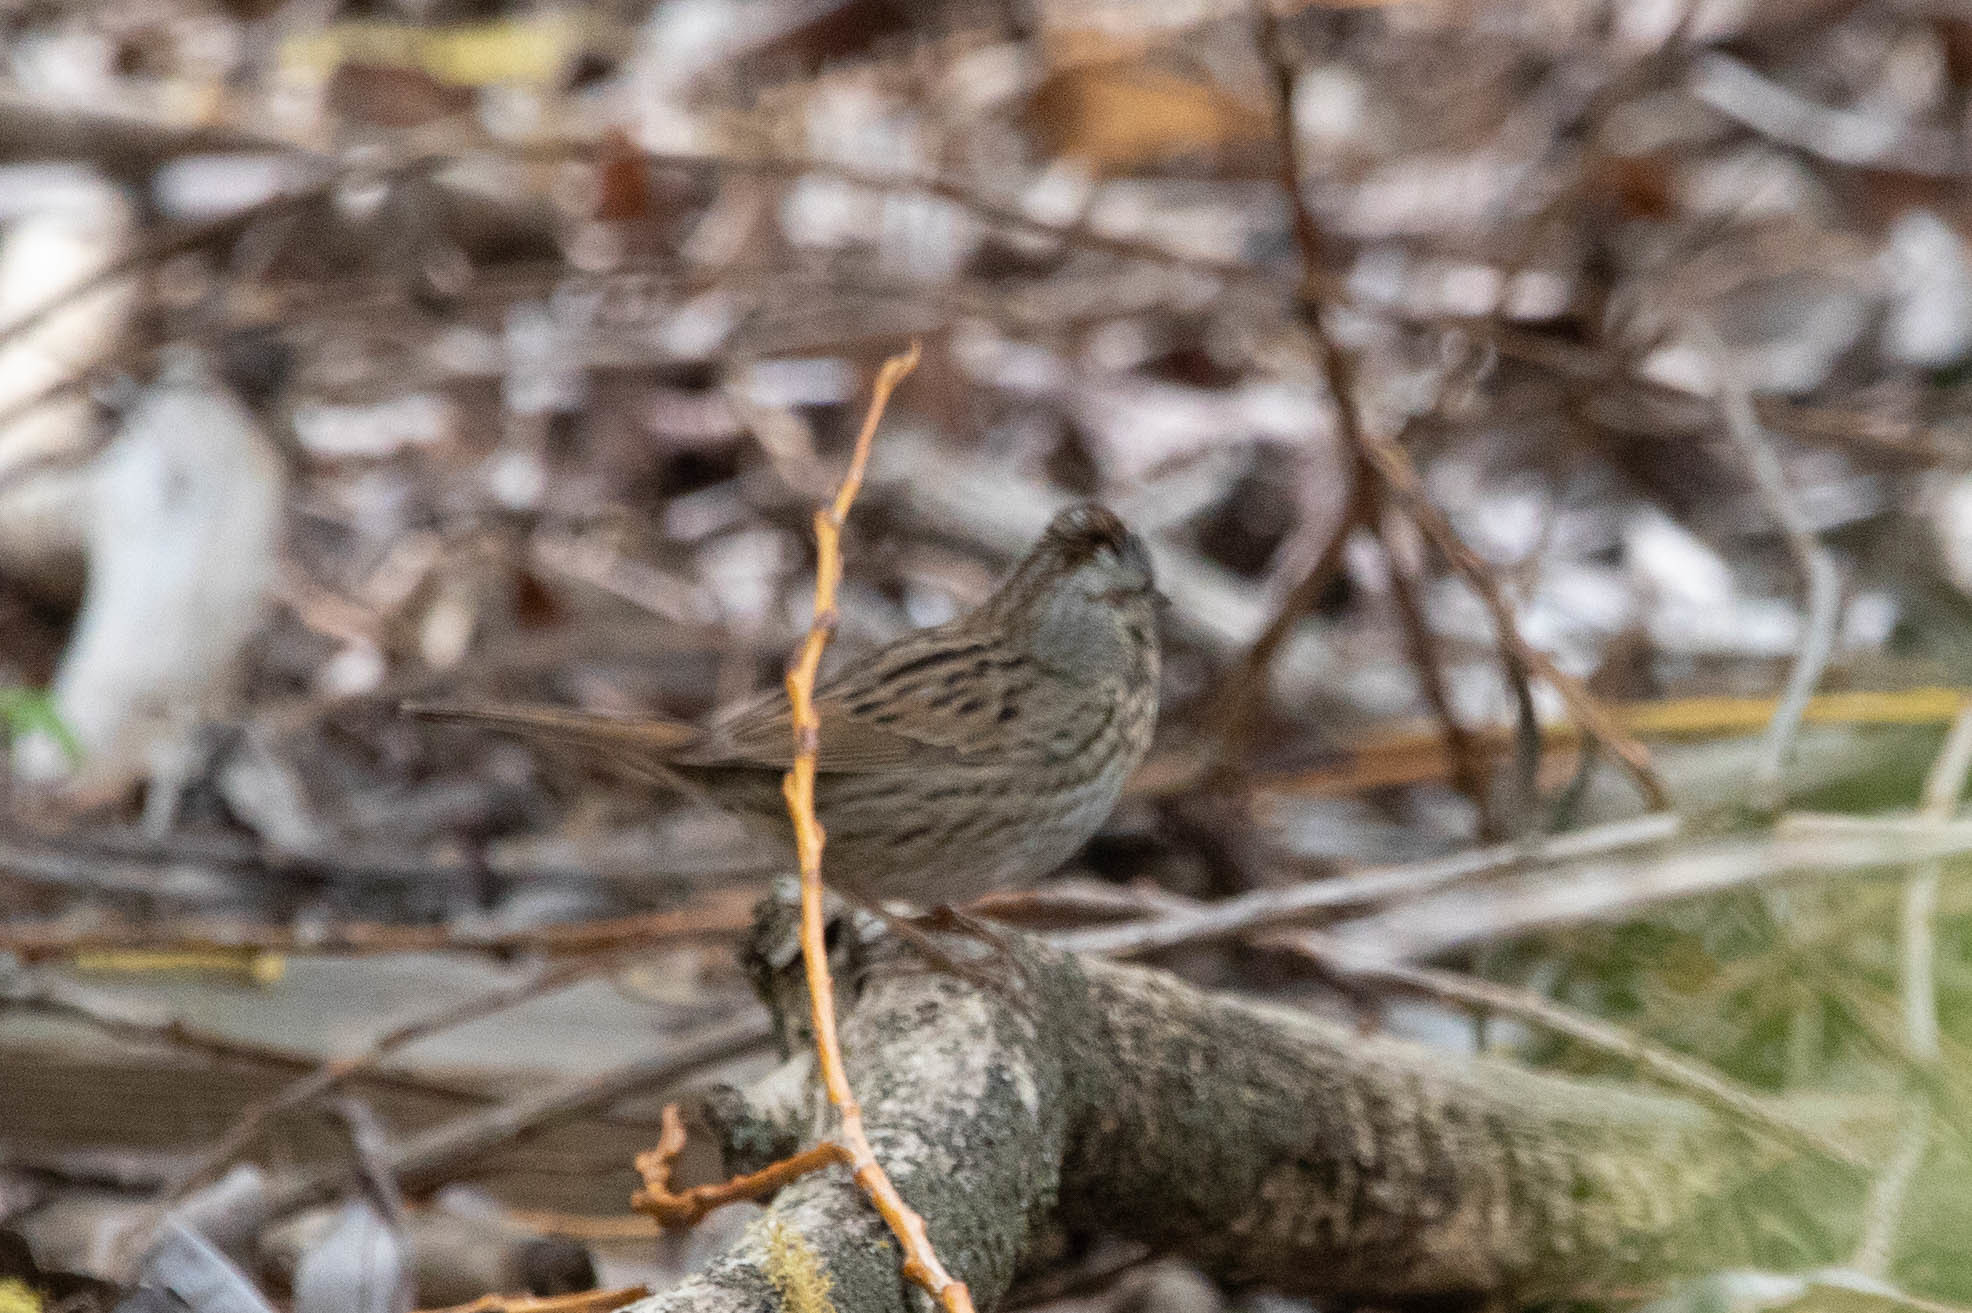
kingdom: Animalia
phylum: Chordata
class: Aves
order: Passeriformes
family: Passerellidae
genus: Melospiza
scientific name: Melospiza lincolnii
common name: Lincoln's sparrow
